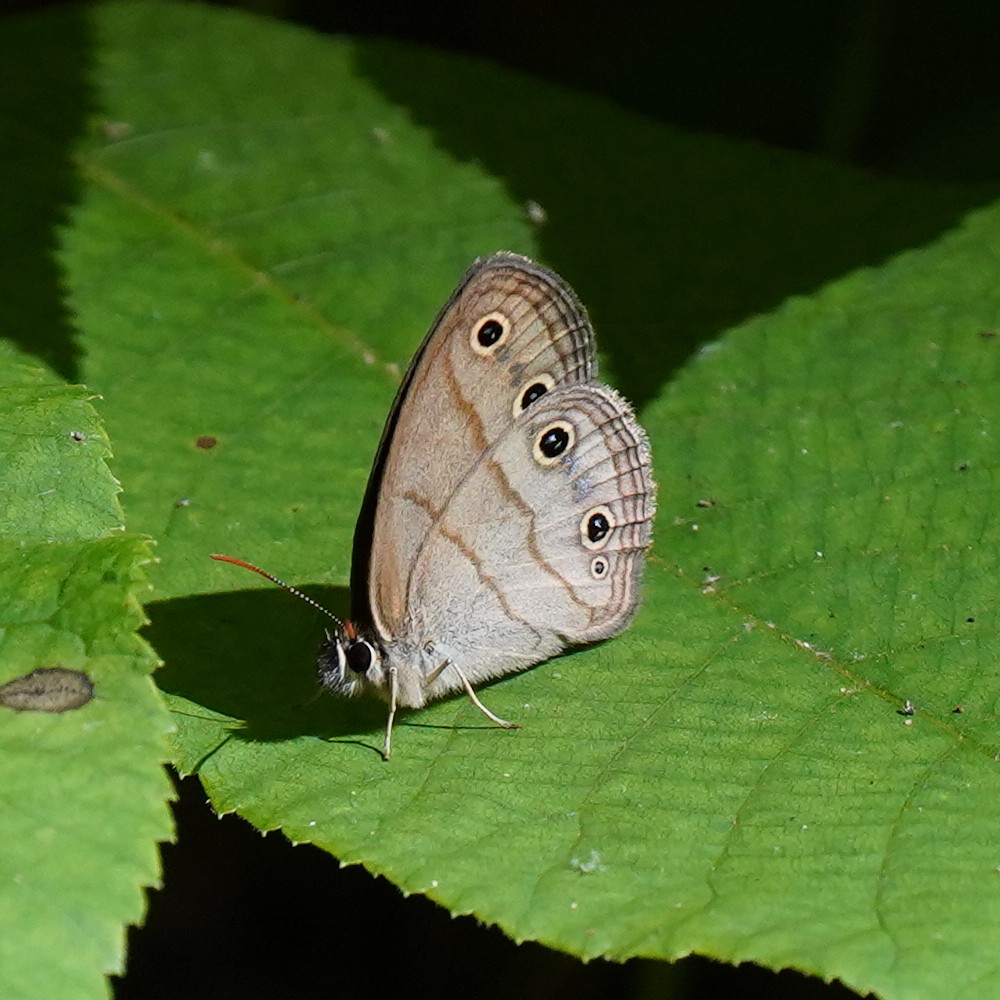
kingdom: Animalia
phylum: Arthropoda
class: Insecta
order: Lepidoptera
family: Nymphalidae
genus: Euptychia
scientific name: Euptychia cymela
